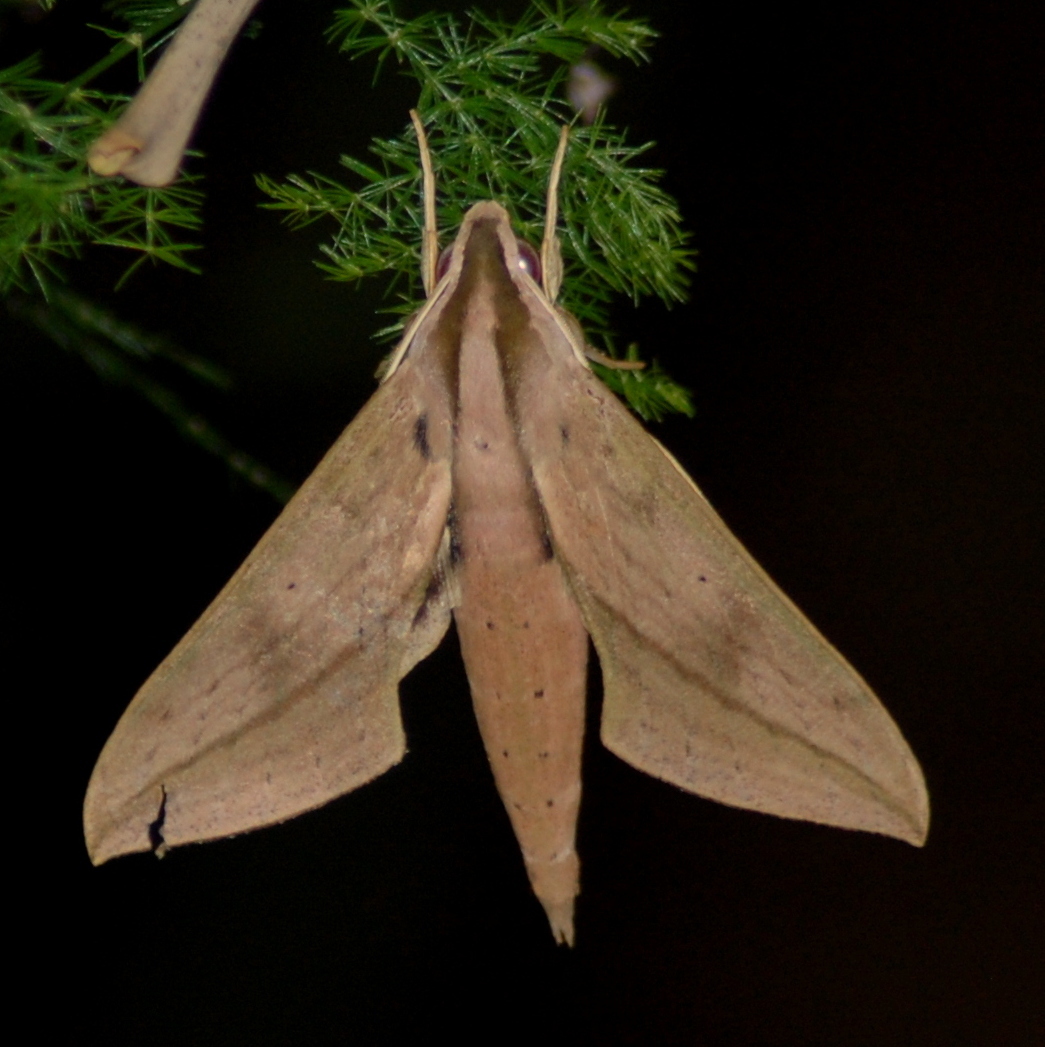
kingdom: Animalia
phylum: Arthropoda
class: Insecta
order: Lepidoptera
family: Sphingidae
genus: Xylophanes
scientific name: Xylophanes anubus
